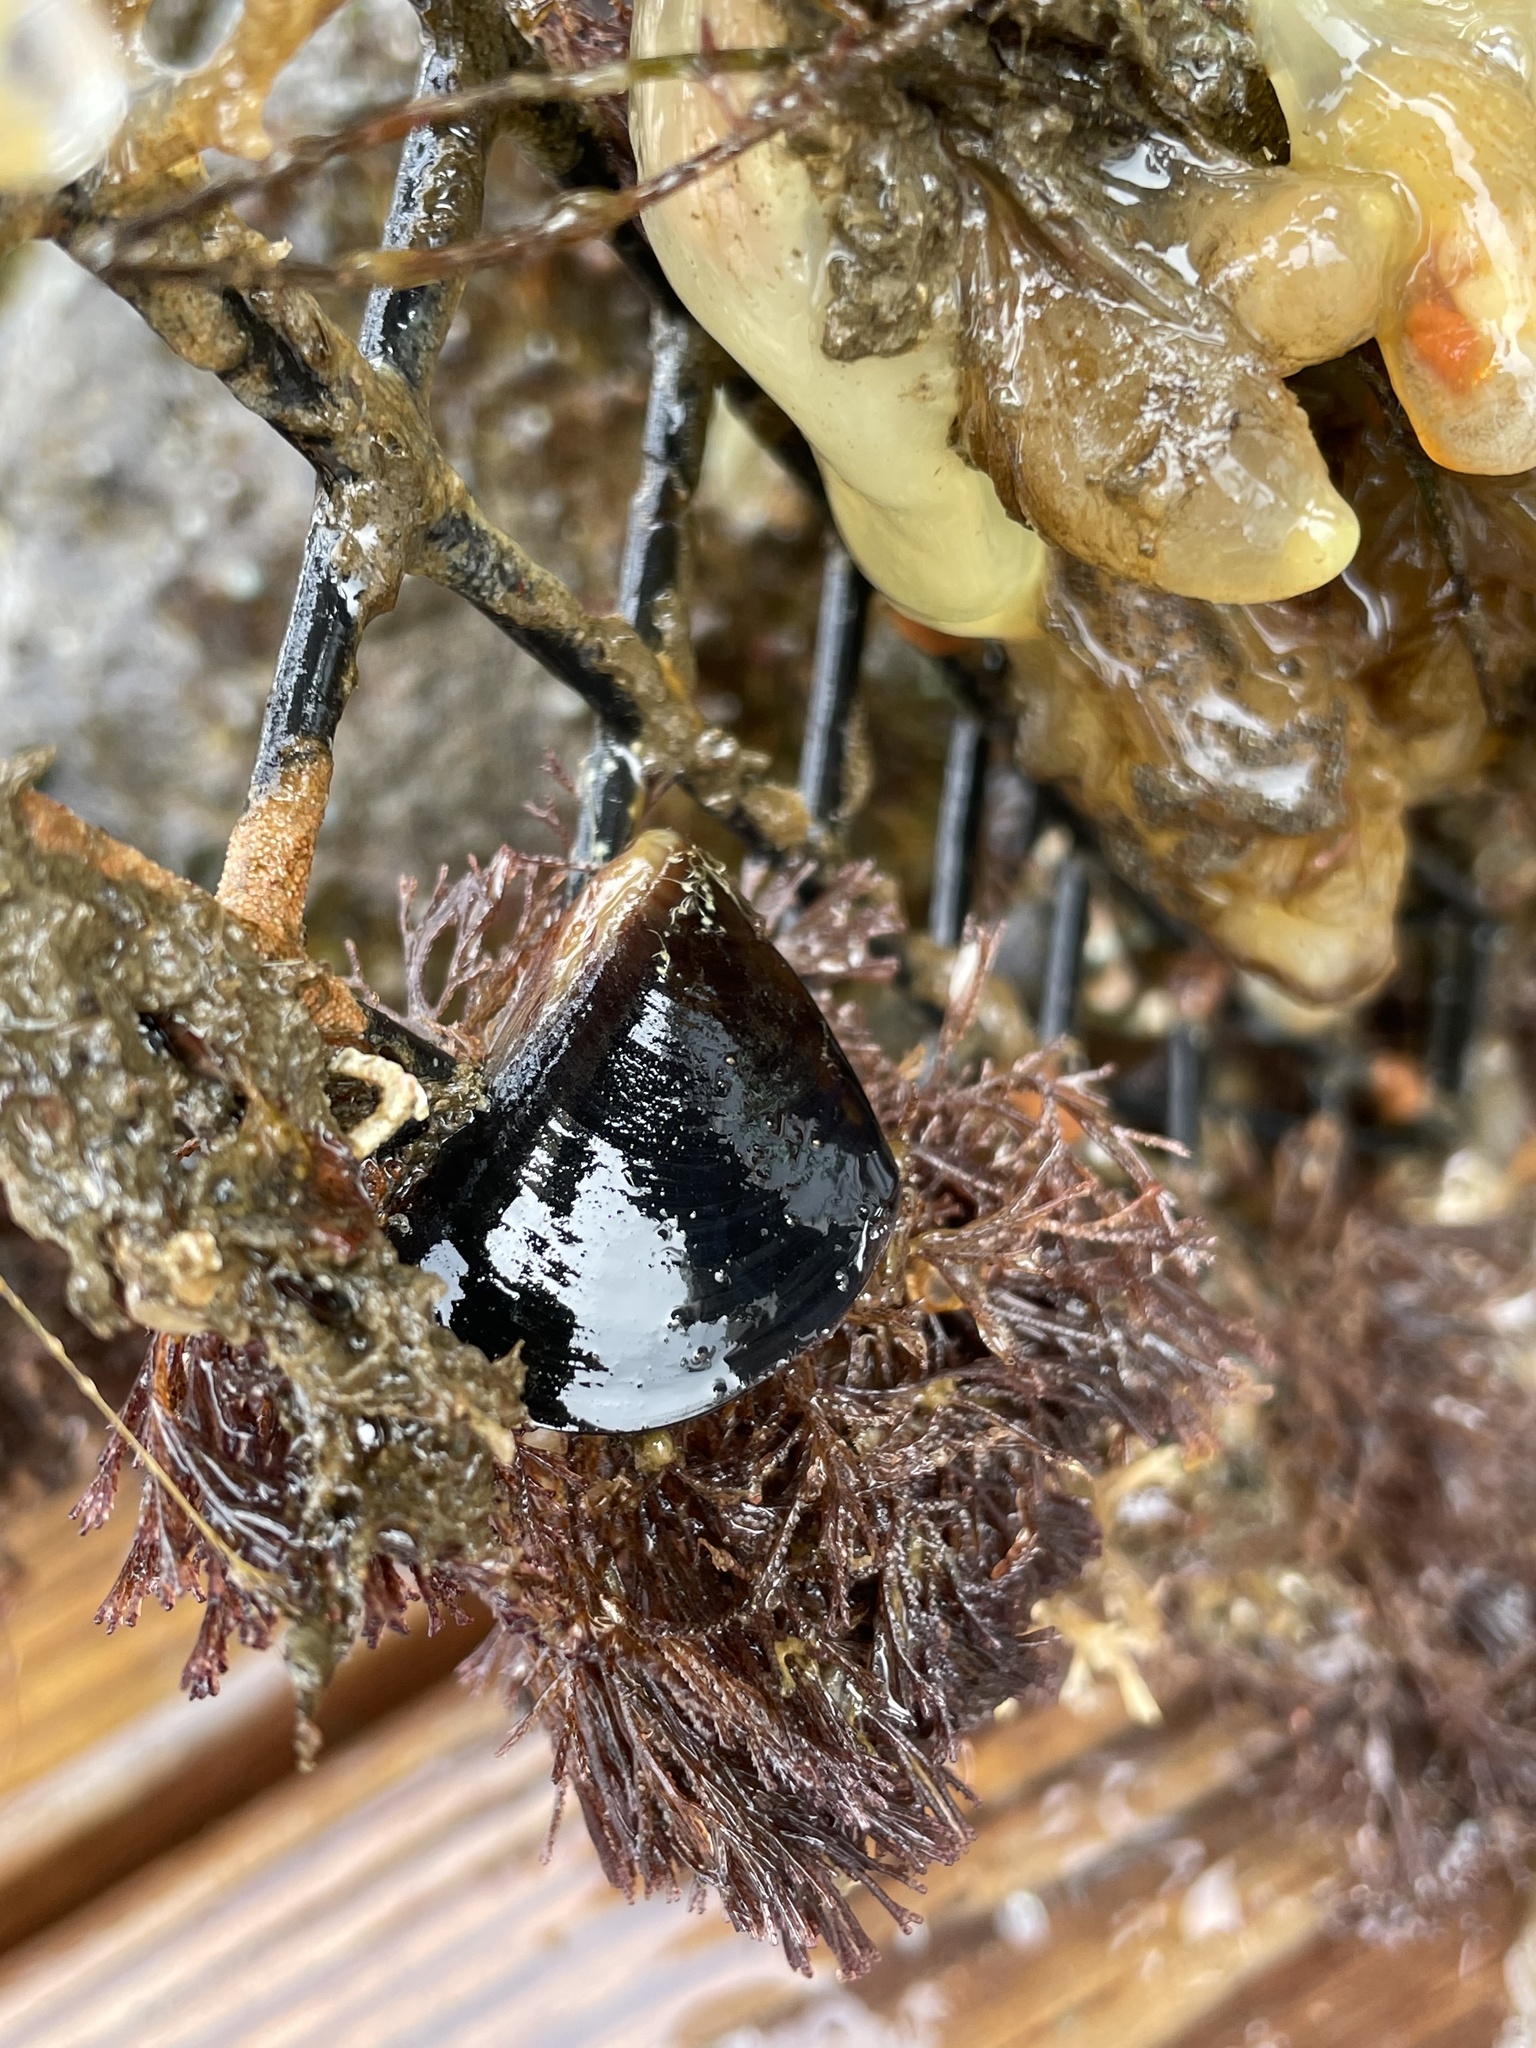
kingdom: Animalia
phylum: Mollusca
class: Bivalvia
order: Mytilida
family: Mytilidae
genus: Mytilus
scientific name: Mytilus galloprovincialis
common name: Mediterranean mussel
